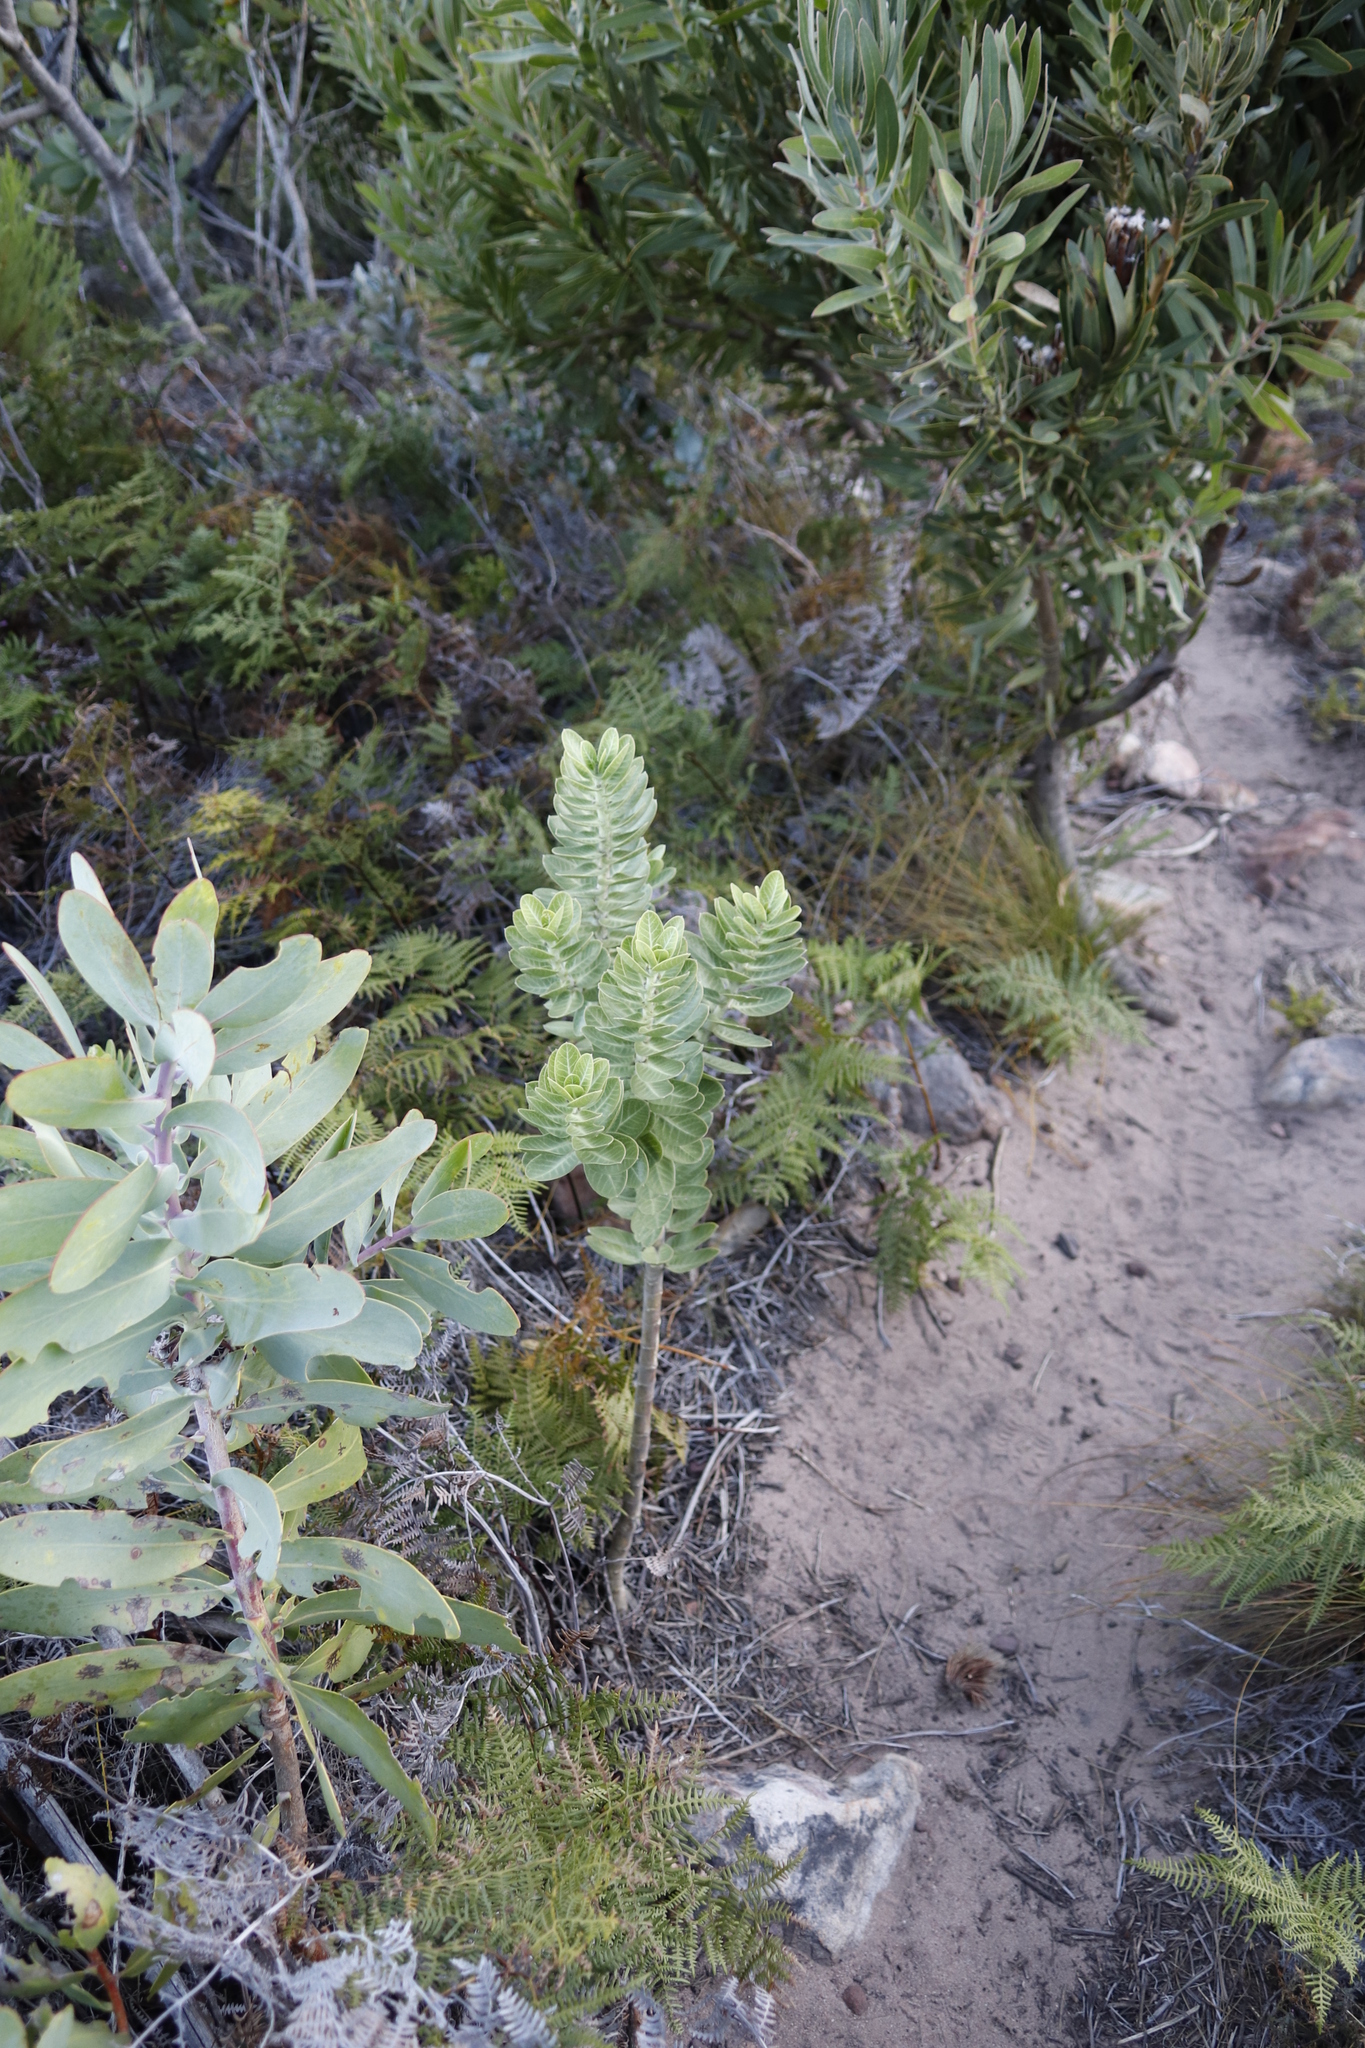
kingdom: Plantae
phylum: Tracheophyta
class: Magnoliopsida
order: Gentianales
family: Apocynaceae
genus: Gomphocarpus
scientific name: Gomphocarpus cancellatus
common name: Wild cotton
